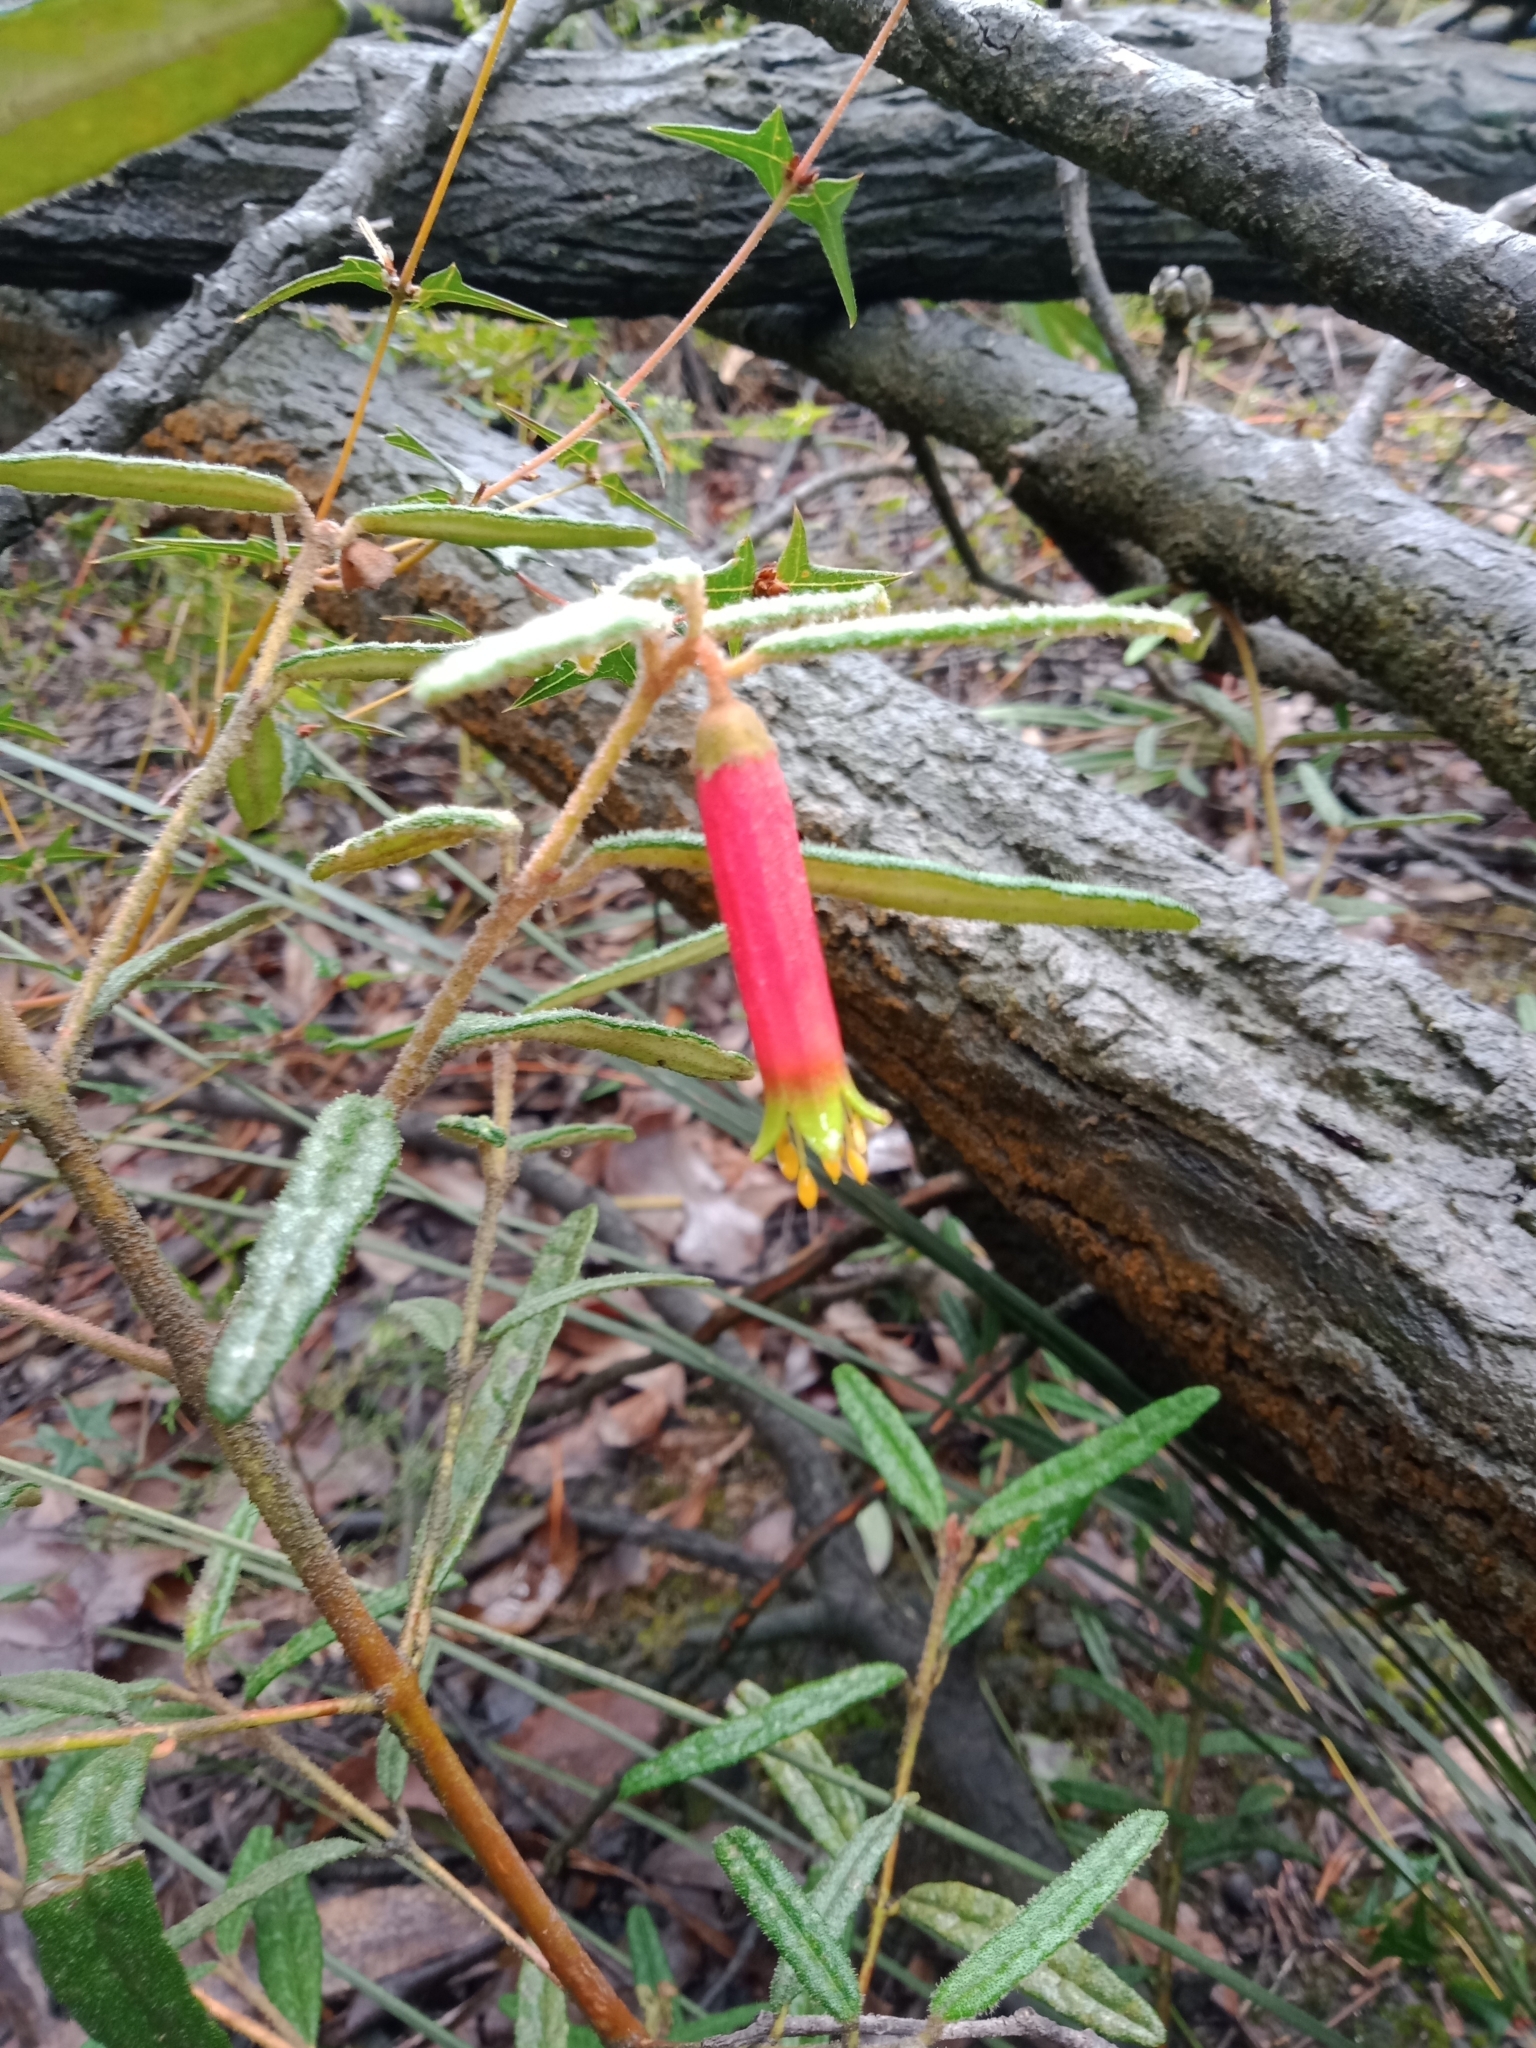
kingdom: Plantae
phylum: Tracheophyta
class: Magnoliopsida
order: Sapindales
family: Rutaceae
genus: Correa
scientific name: Correa reflexa
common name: Common correa
